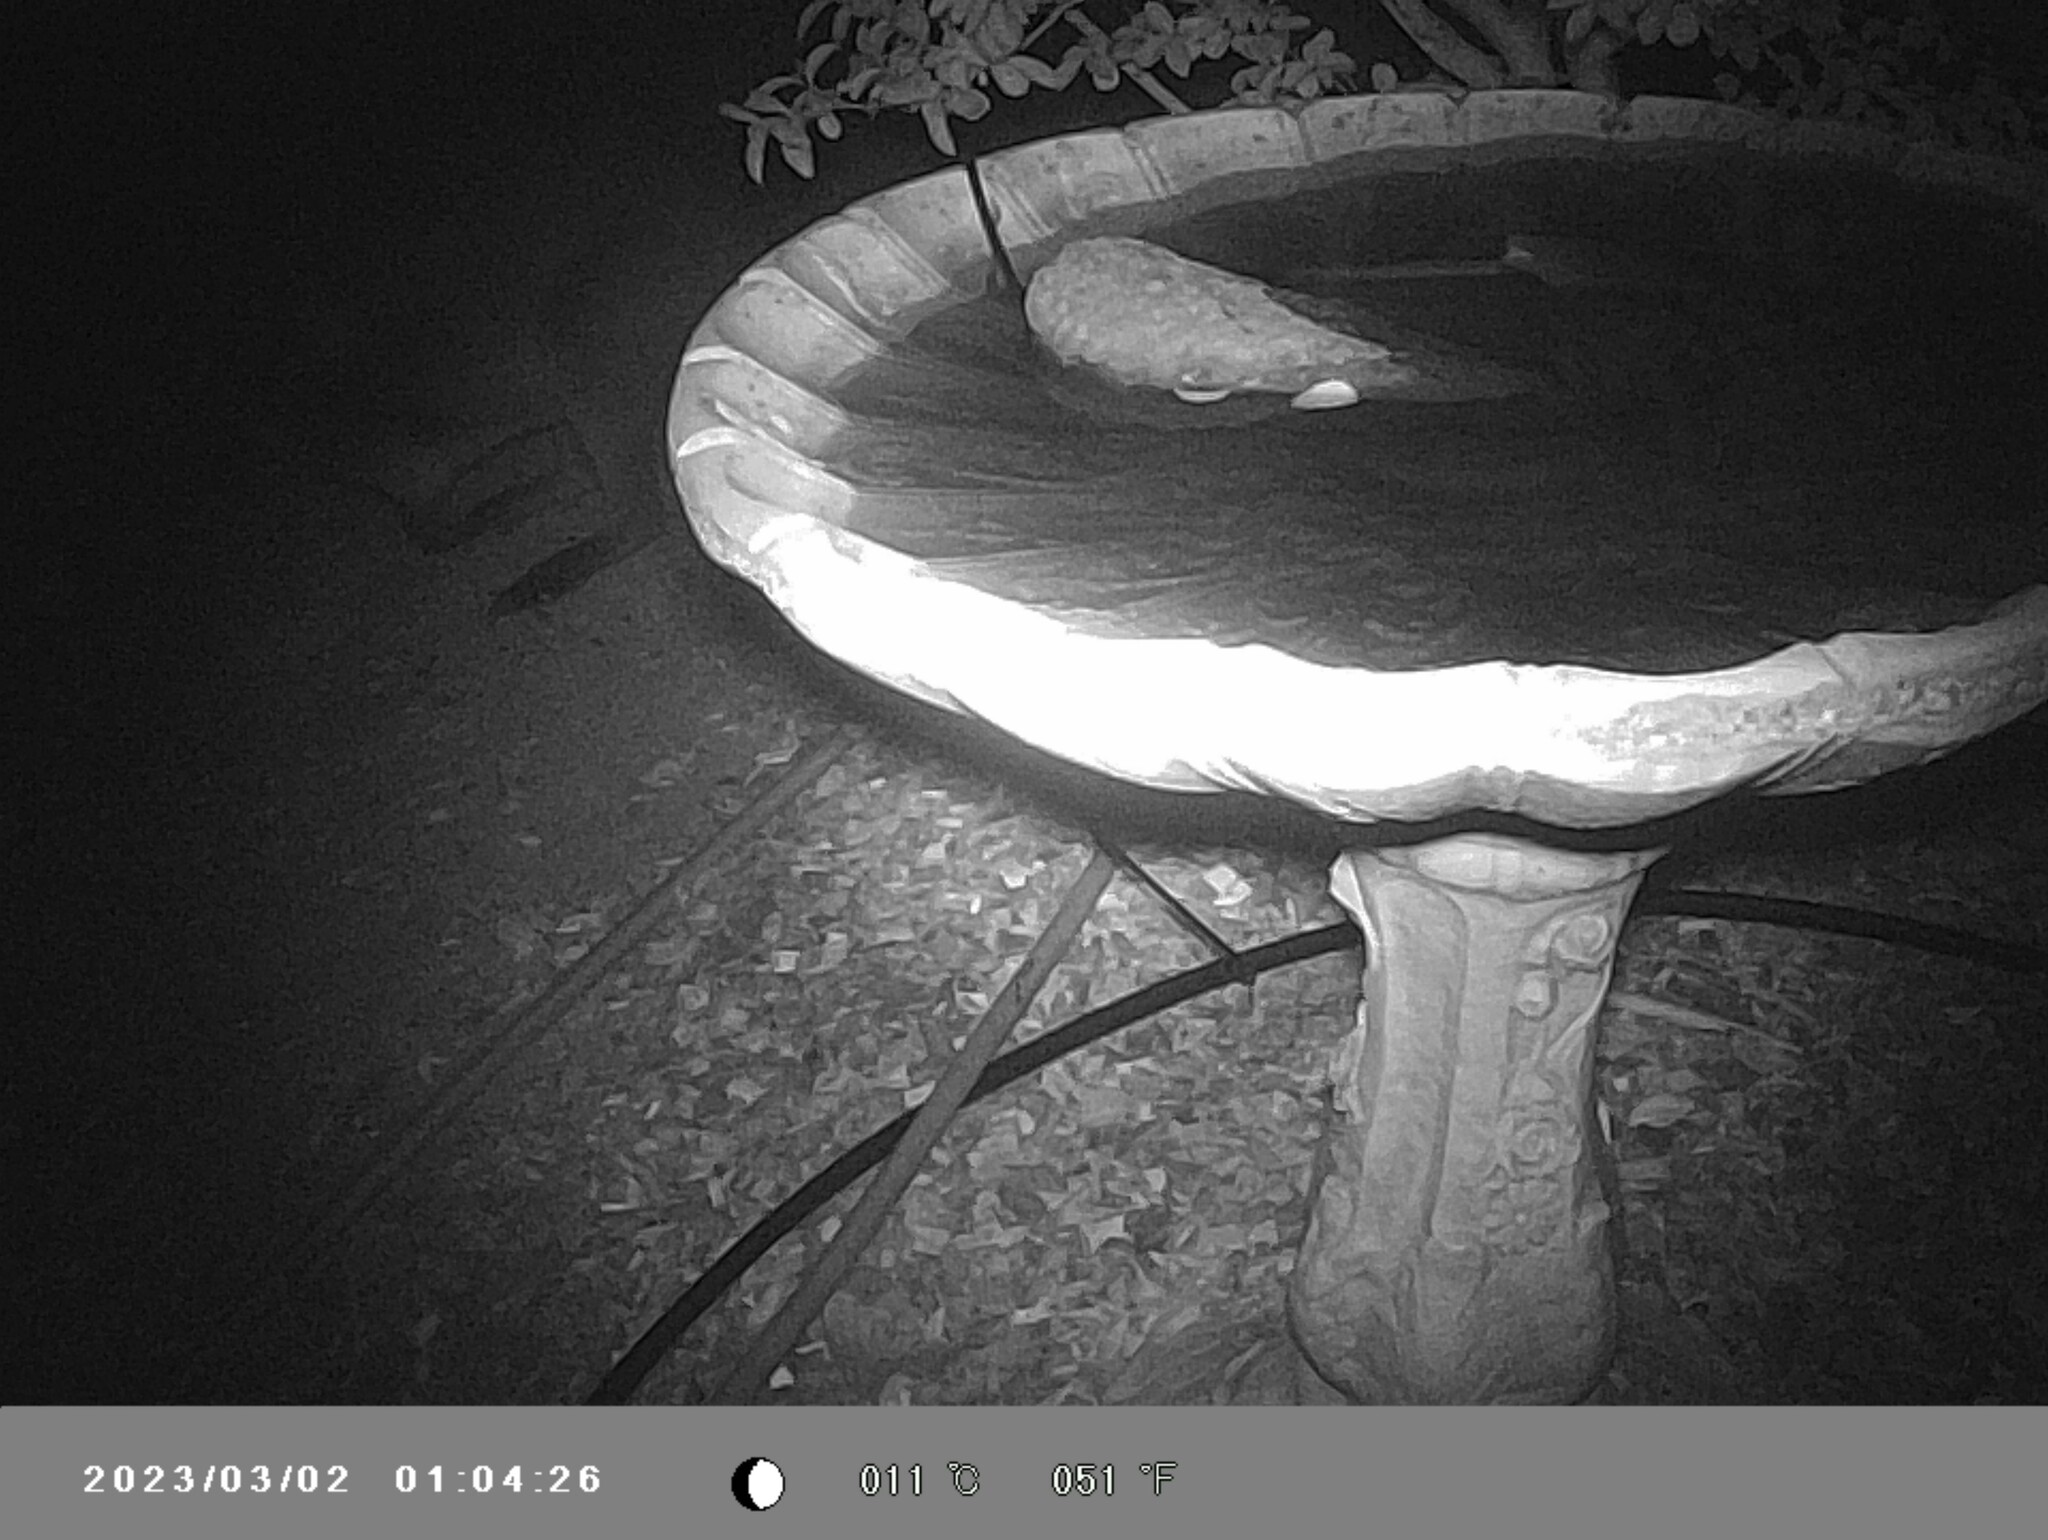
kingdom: Animalia
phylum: Chordata
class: Mammalia
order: Diprotodontia
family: Macropodidae
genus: Wallabia
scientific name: Wallabia bicolor
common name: Swamp wallaby
